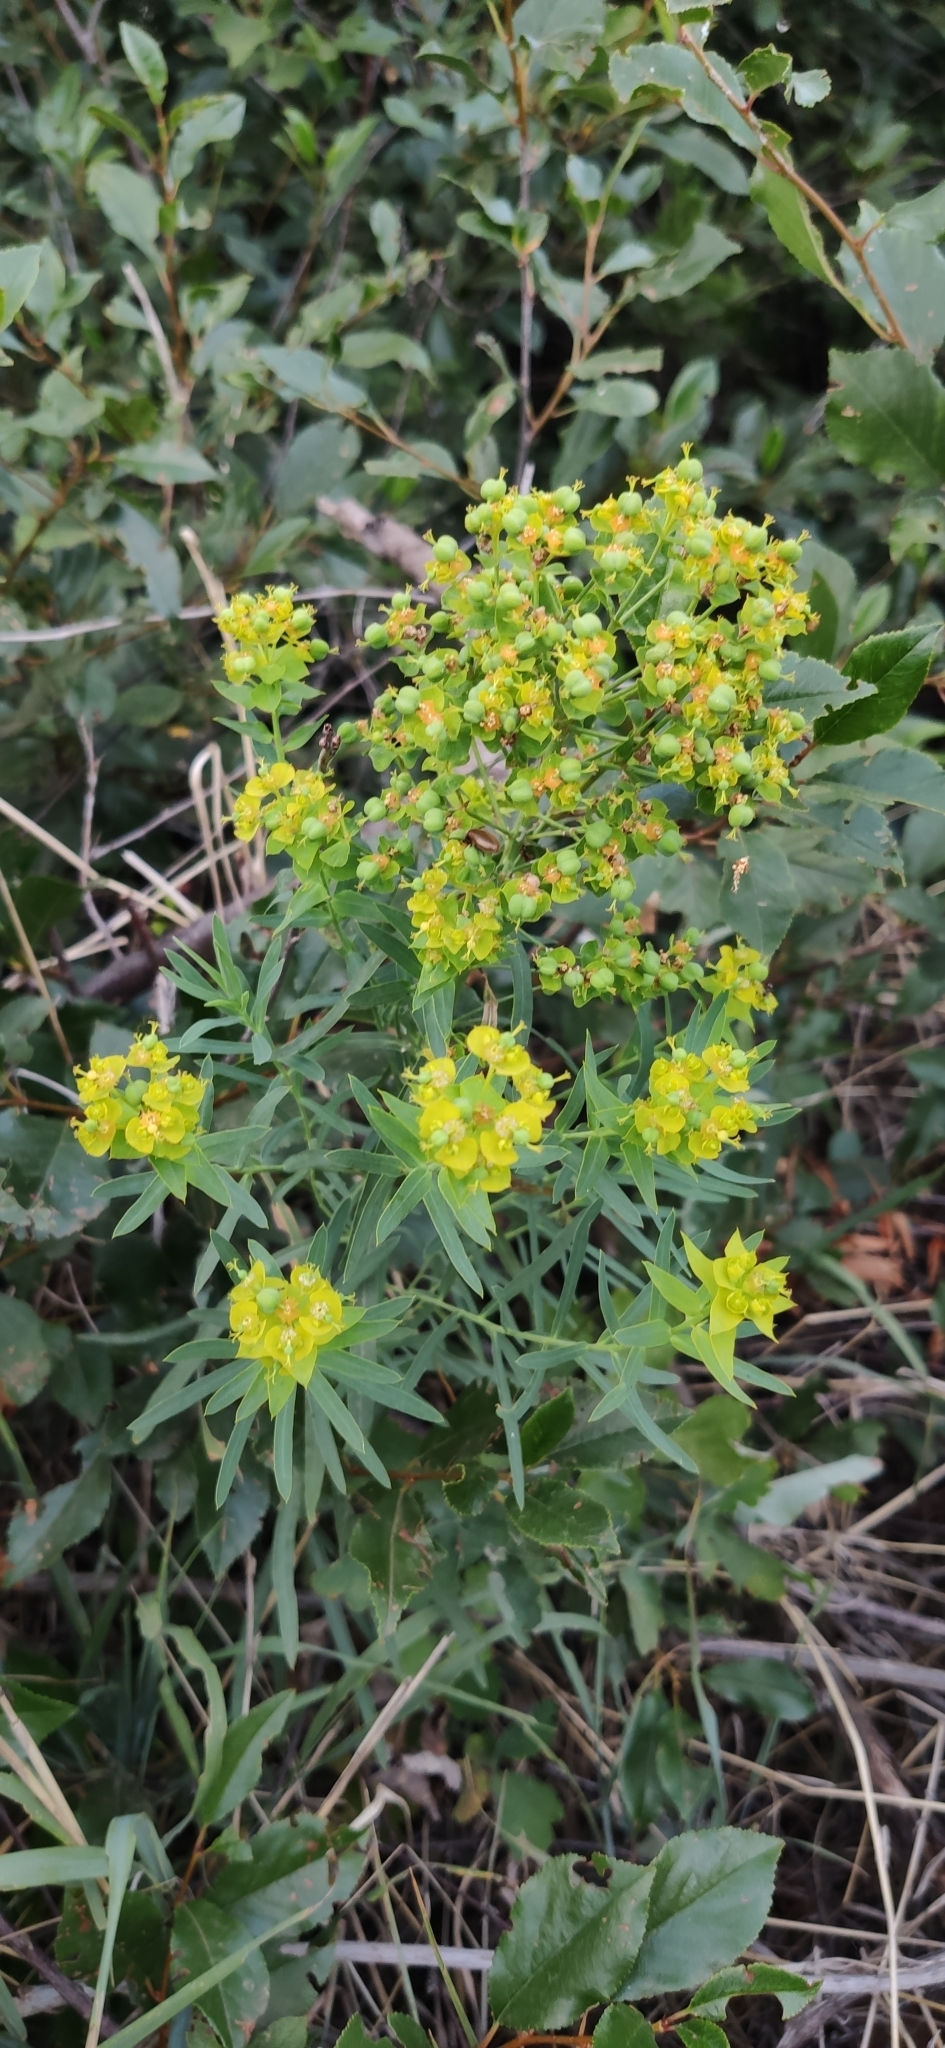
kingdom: Plantae
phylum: Tracheophyta
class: Magnoliopsida
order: Malpighiales
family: Euphorbiaceae
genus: Euphorbia
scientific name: Euphorbia virgata
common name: Leafy spurge
